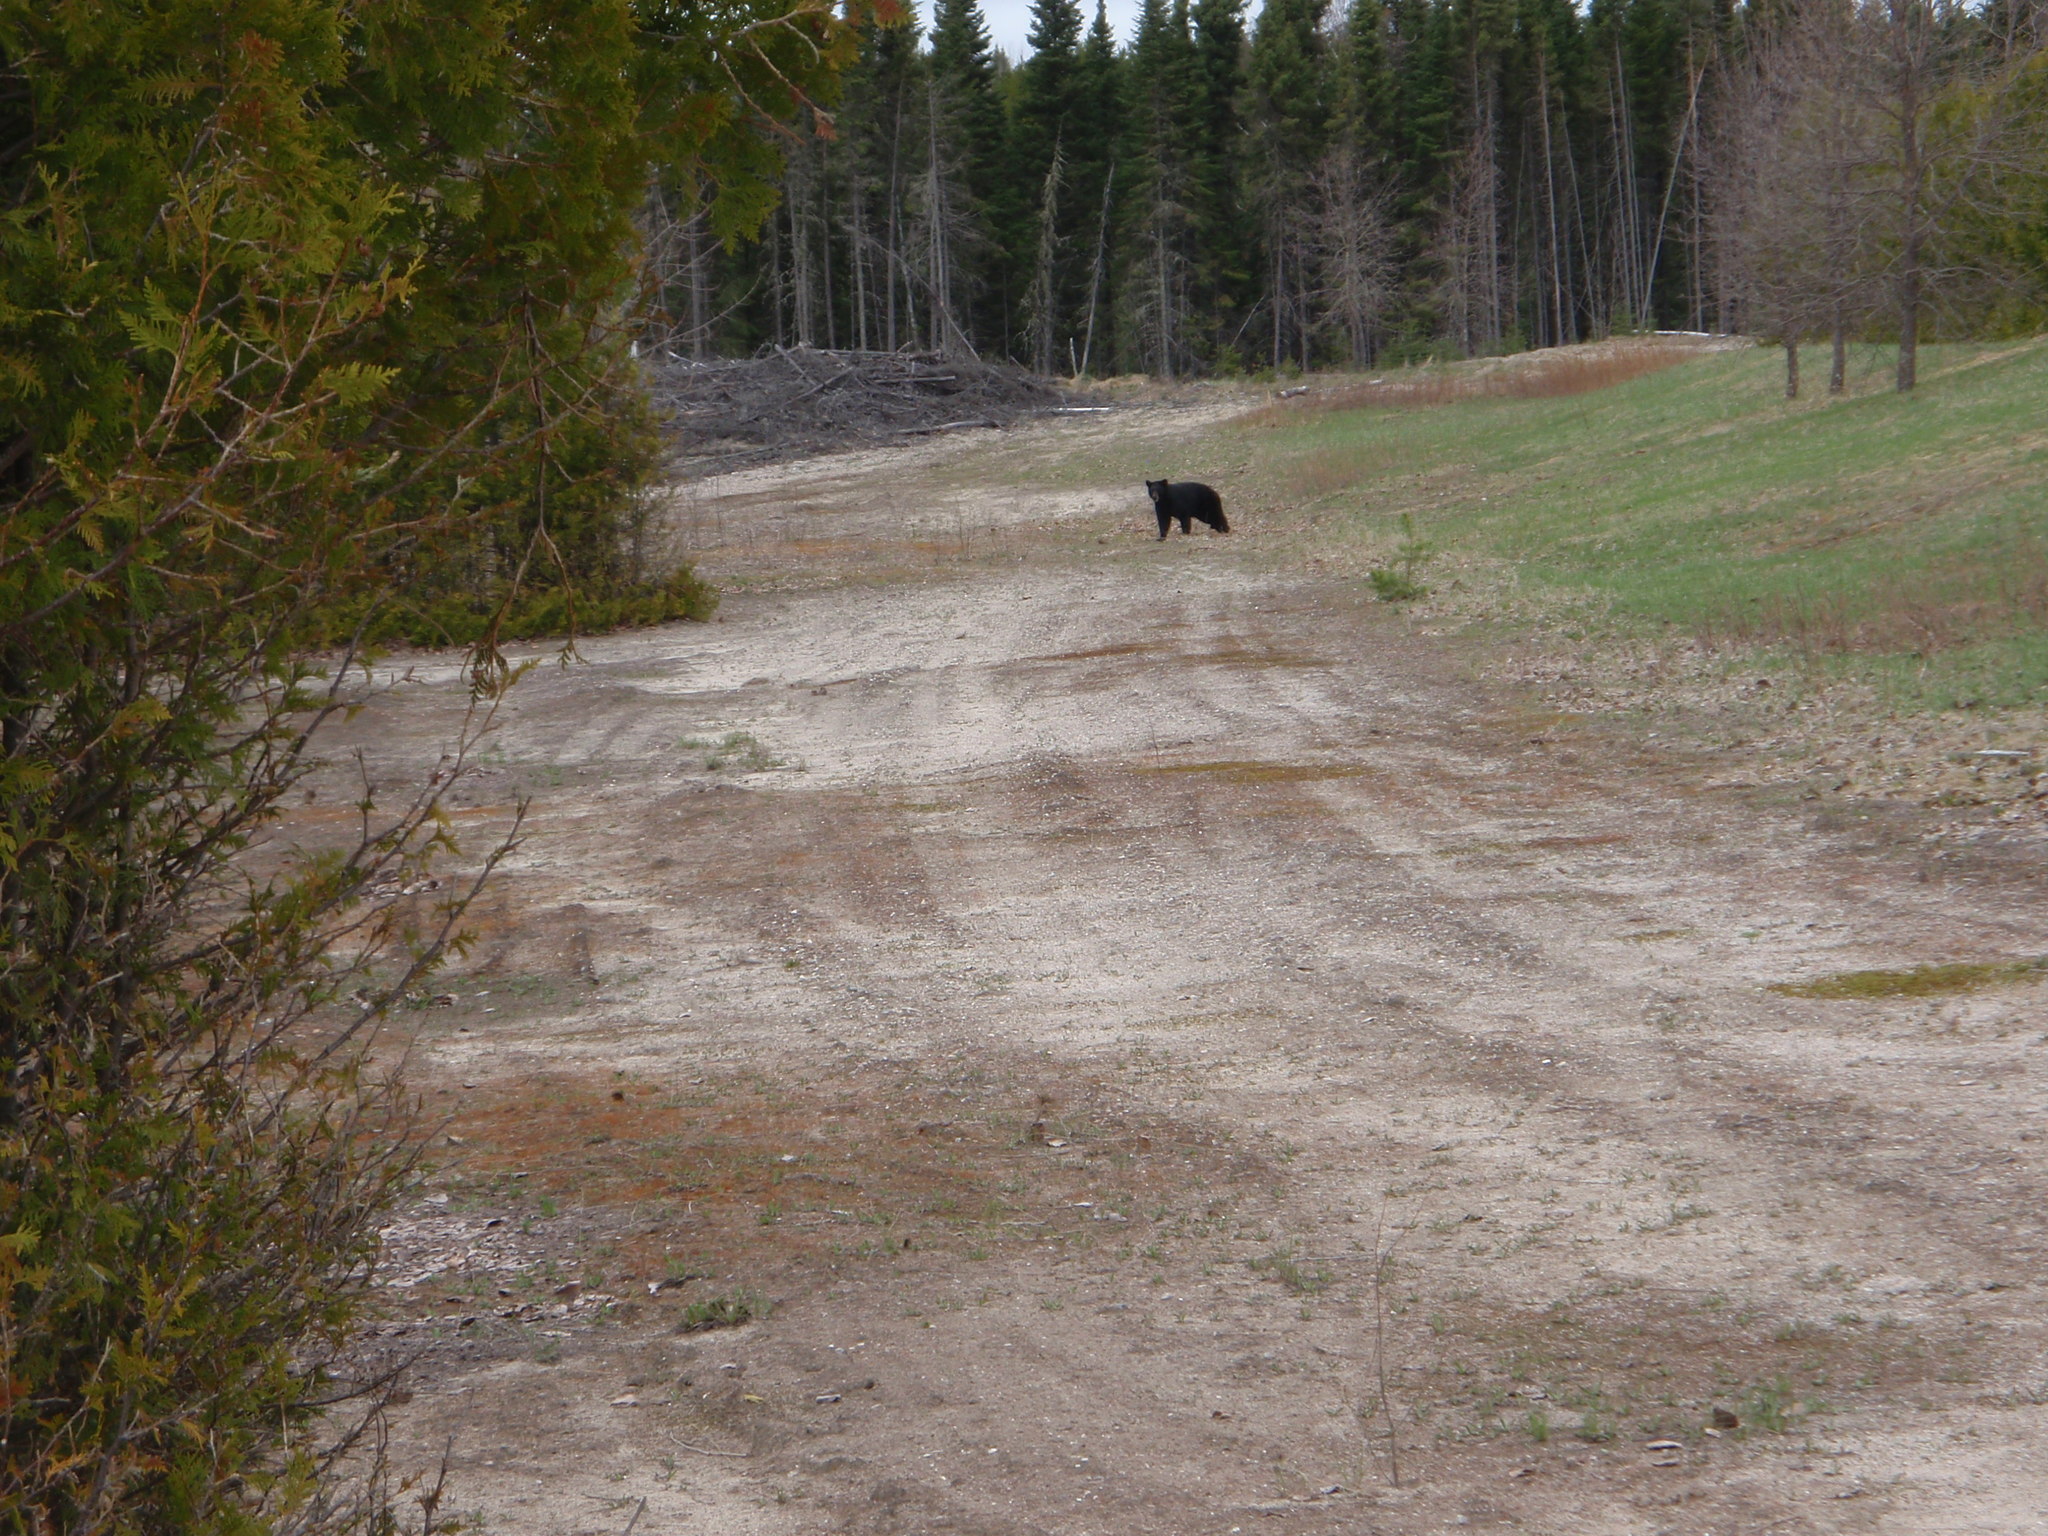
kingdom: Animalia
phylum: Chordata
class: Mammalia
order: Carnivora
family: Ursidae
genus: Ursus
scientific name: Ursus americanus
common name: American black bear
